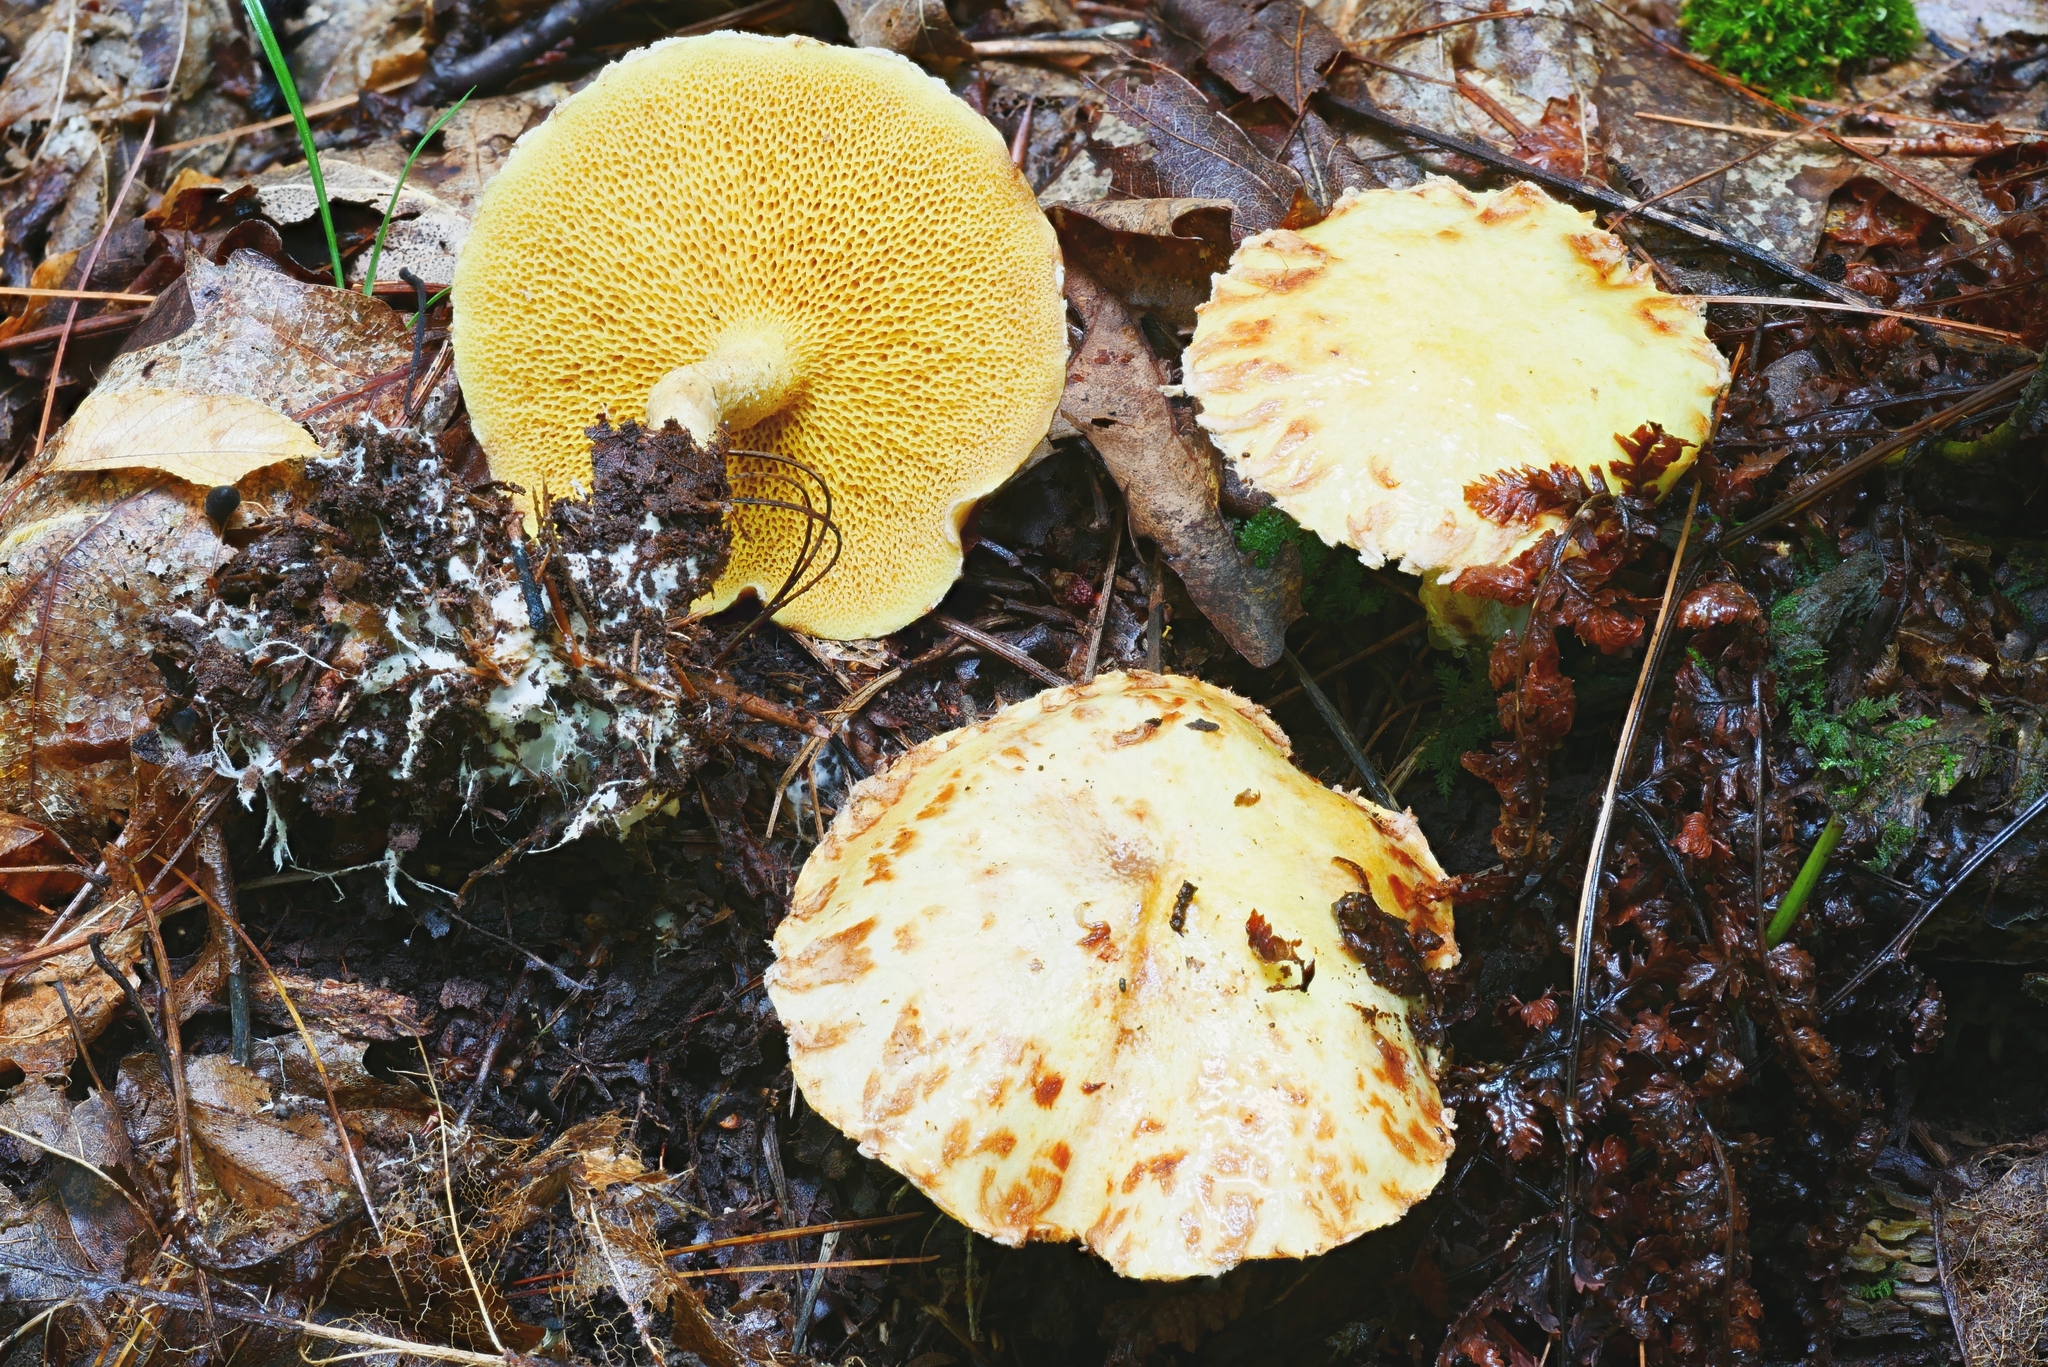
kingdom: Fungi
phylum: Basidiomycota
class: Agaricomycetes
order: Boletales
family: Suillaceae
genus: Suillus
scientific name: Suillus americanus
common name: Chicken fat mushroom
